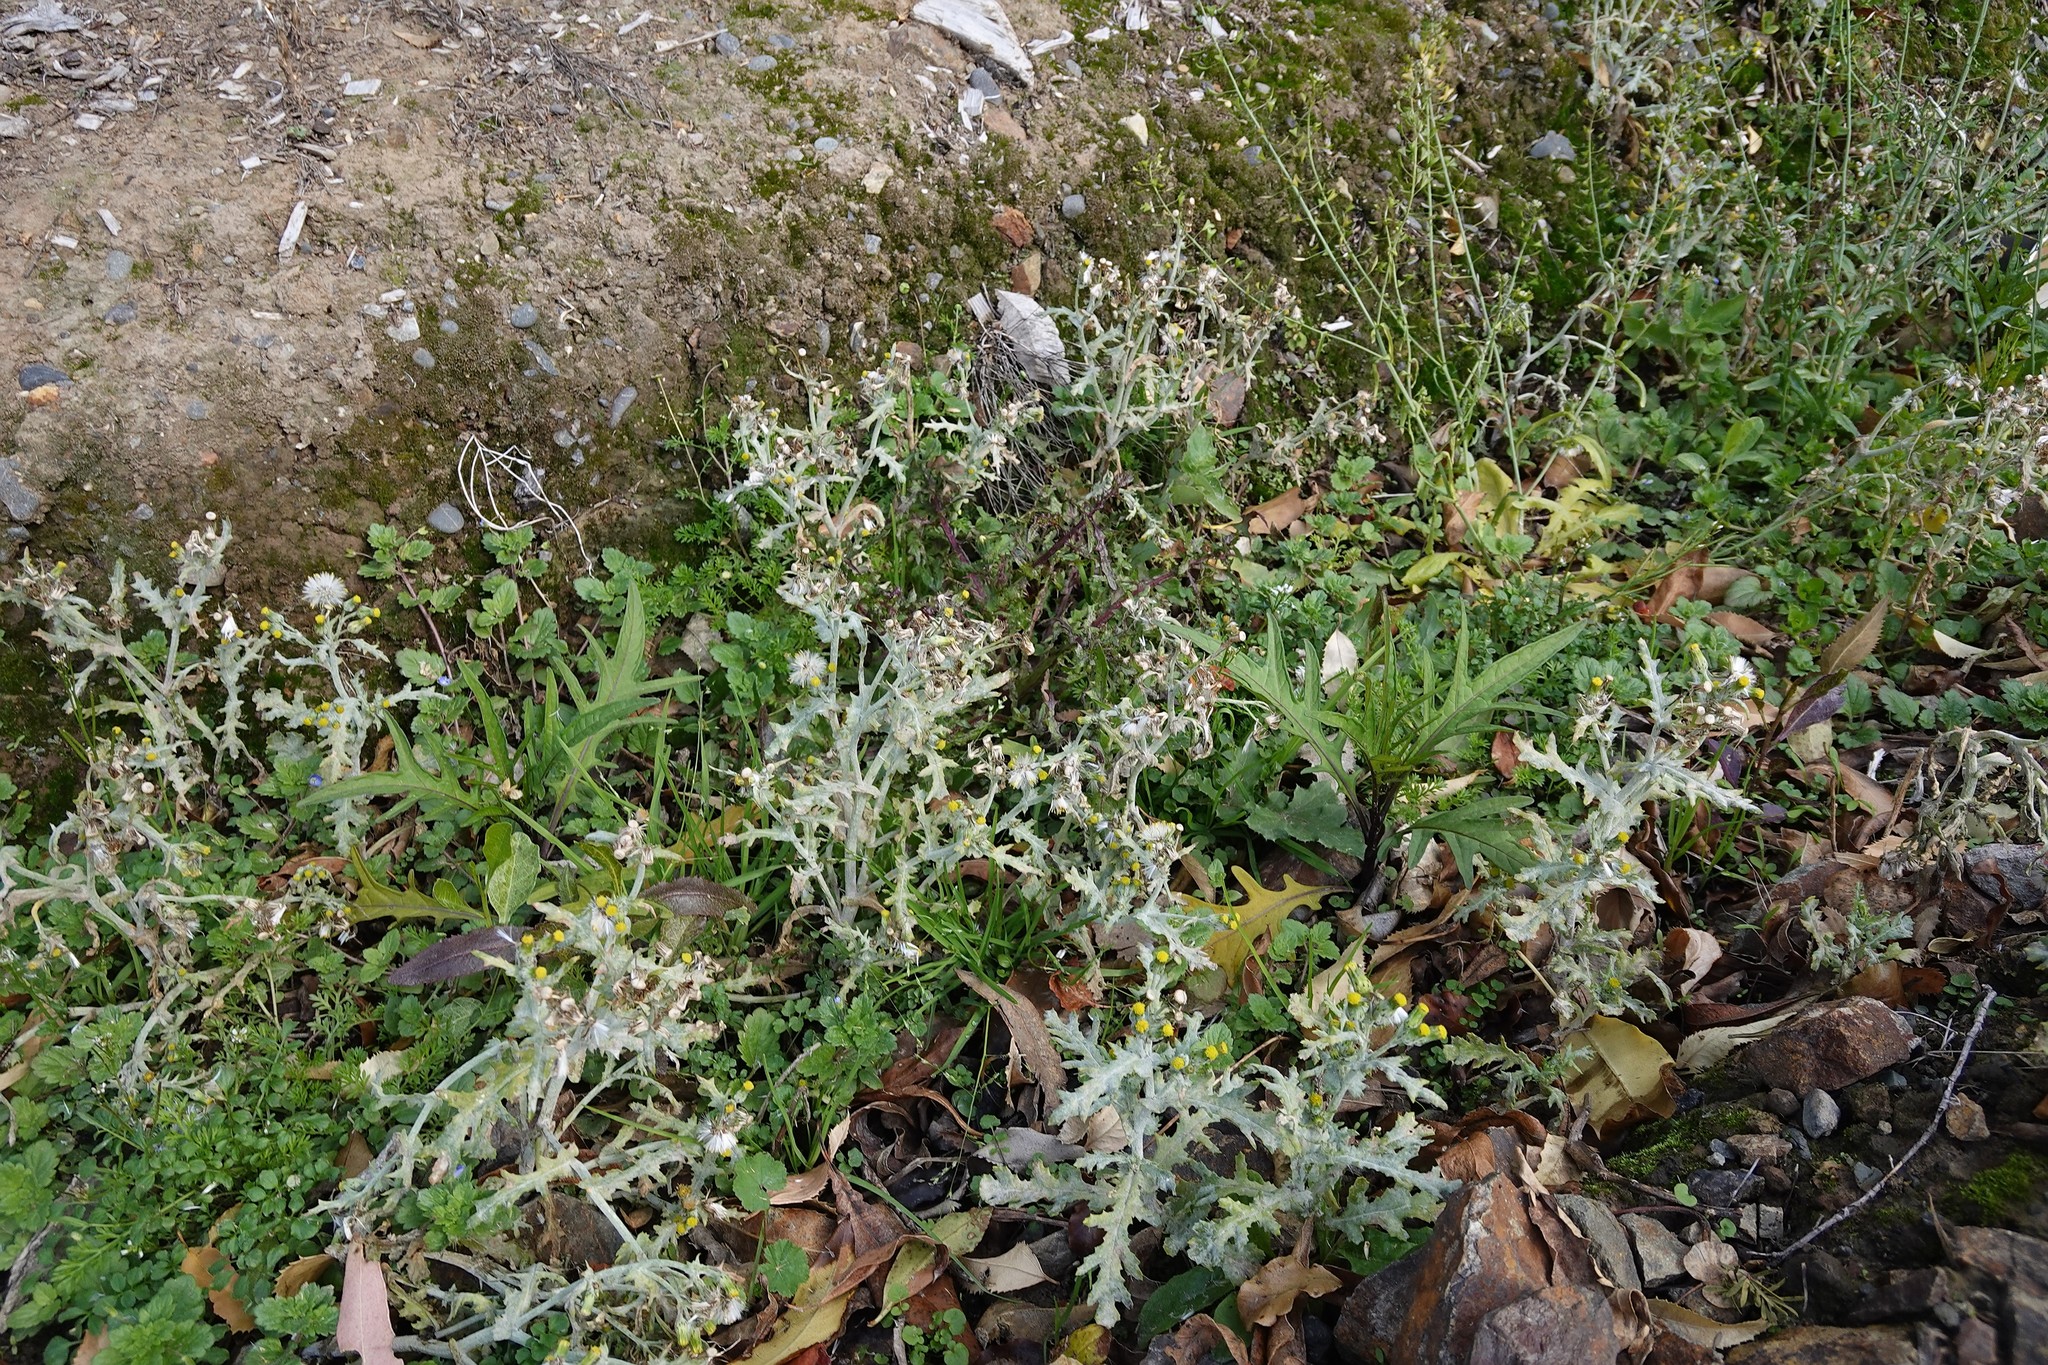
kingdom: Fungi
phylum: Ascomycota
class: Leotiomycetes
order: Helotiales
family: Erysiphaceae
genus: Golovinomyces
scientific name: Golovinomyces fischeri
